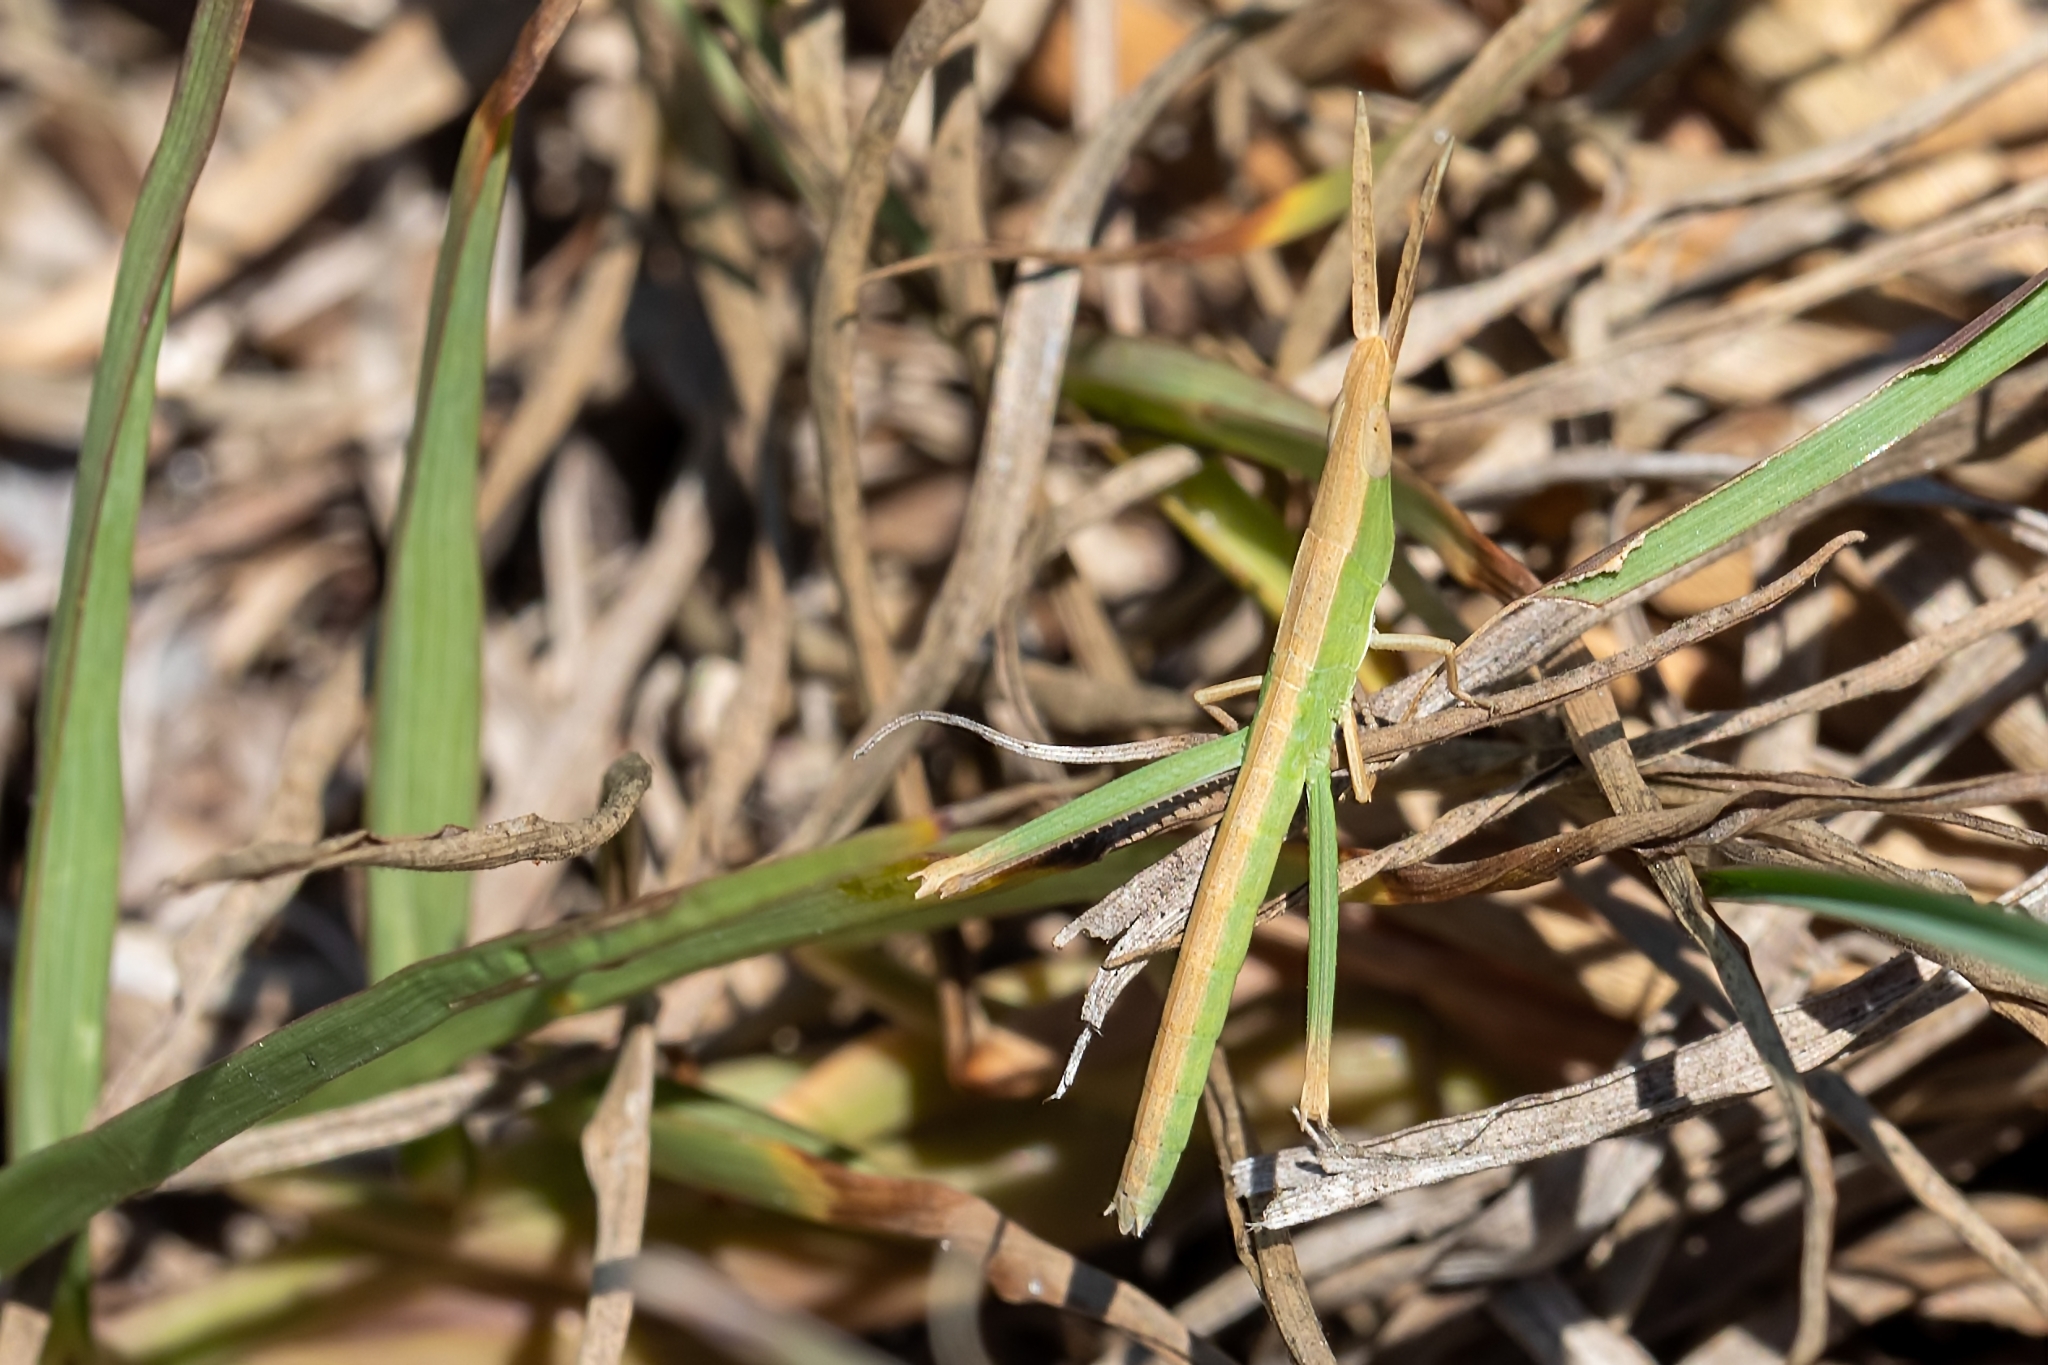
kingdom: Animalia
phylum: Arthropoda
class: Insecta
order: Orthoptera
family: Acrididae
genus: Achurum
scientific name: Achurum carinatum
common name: Long-headed toothpick grasshopper
